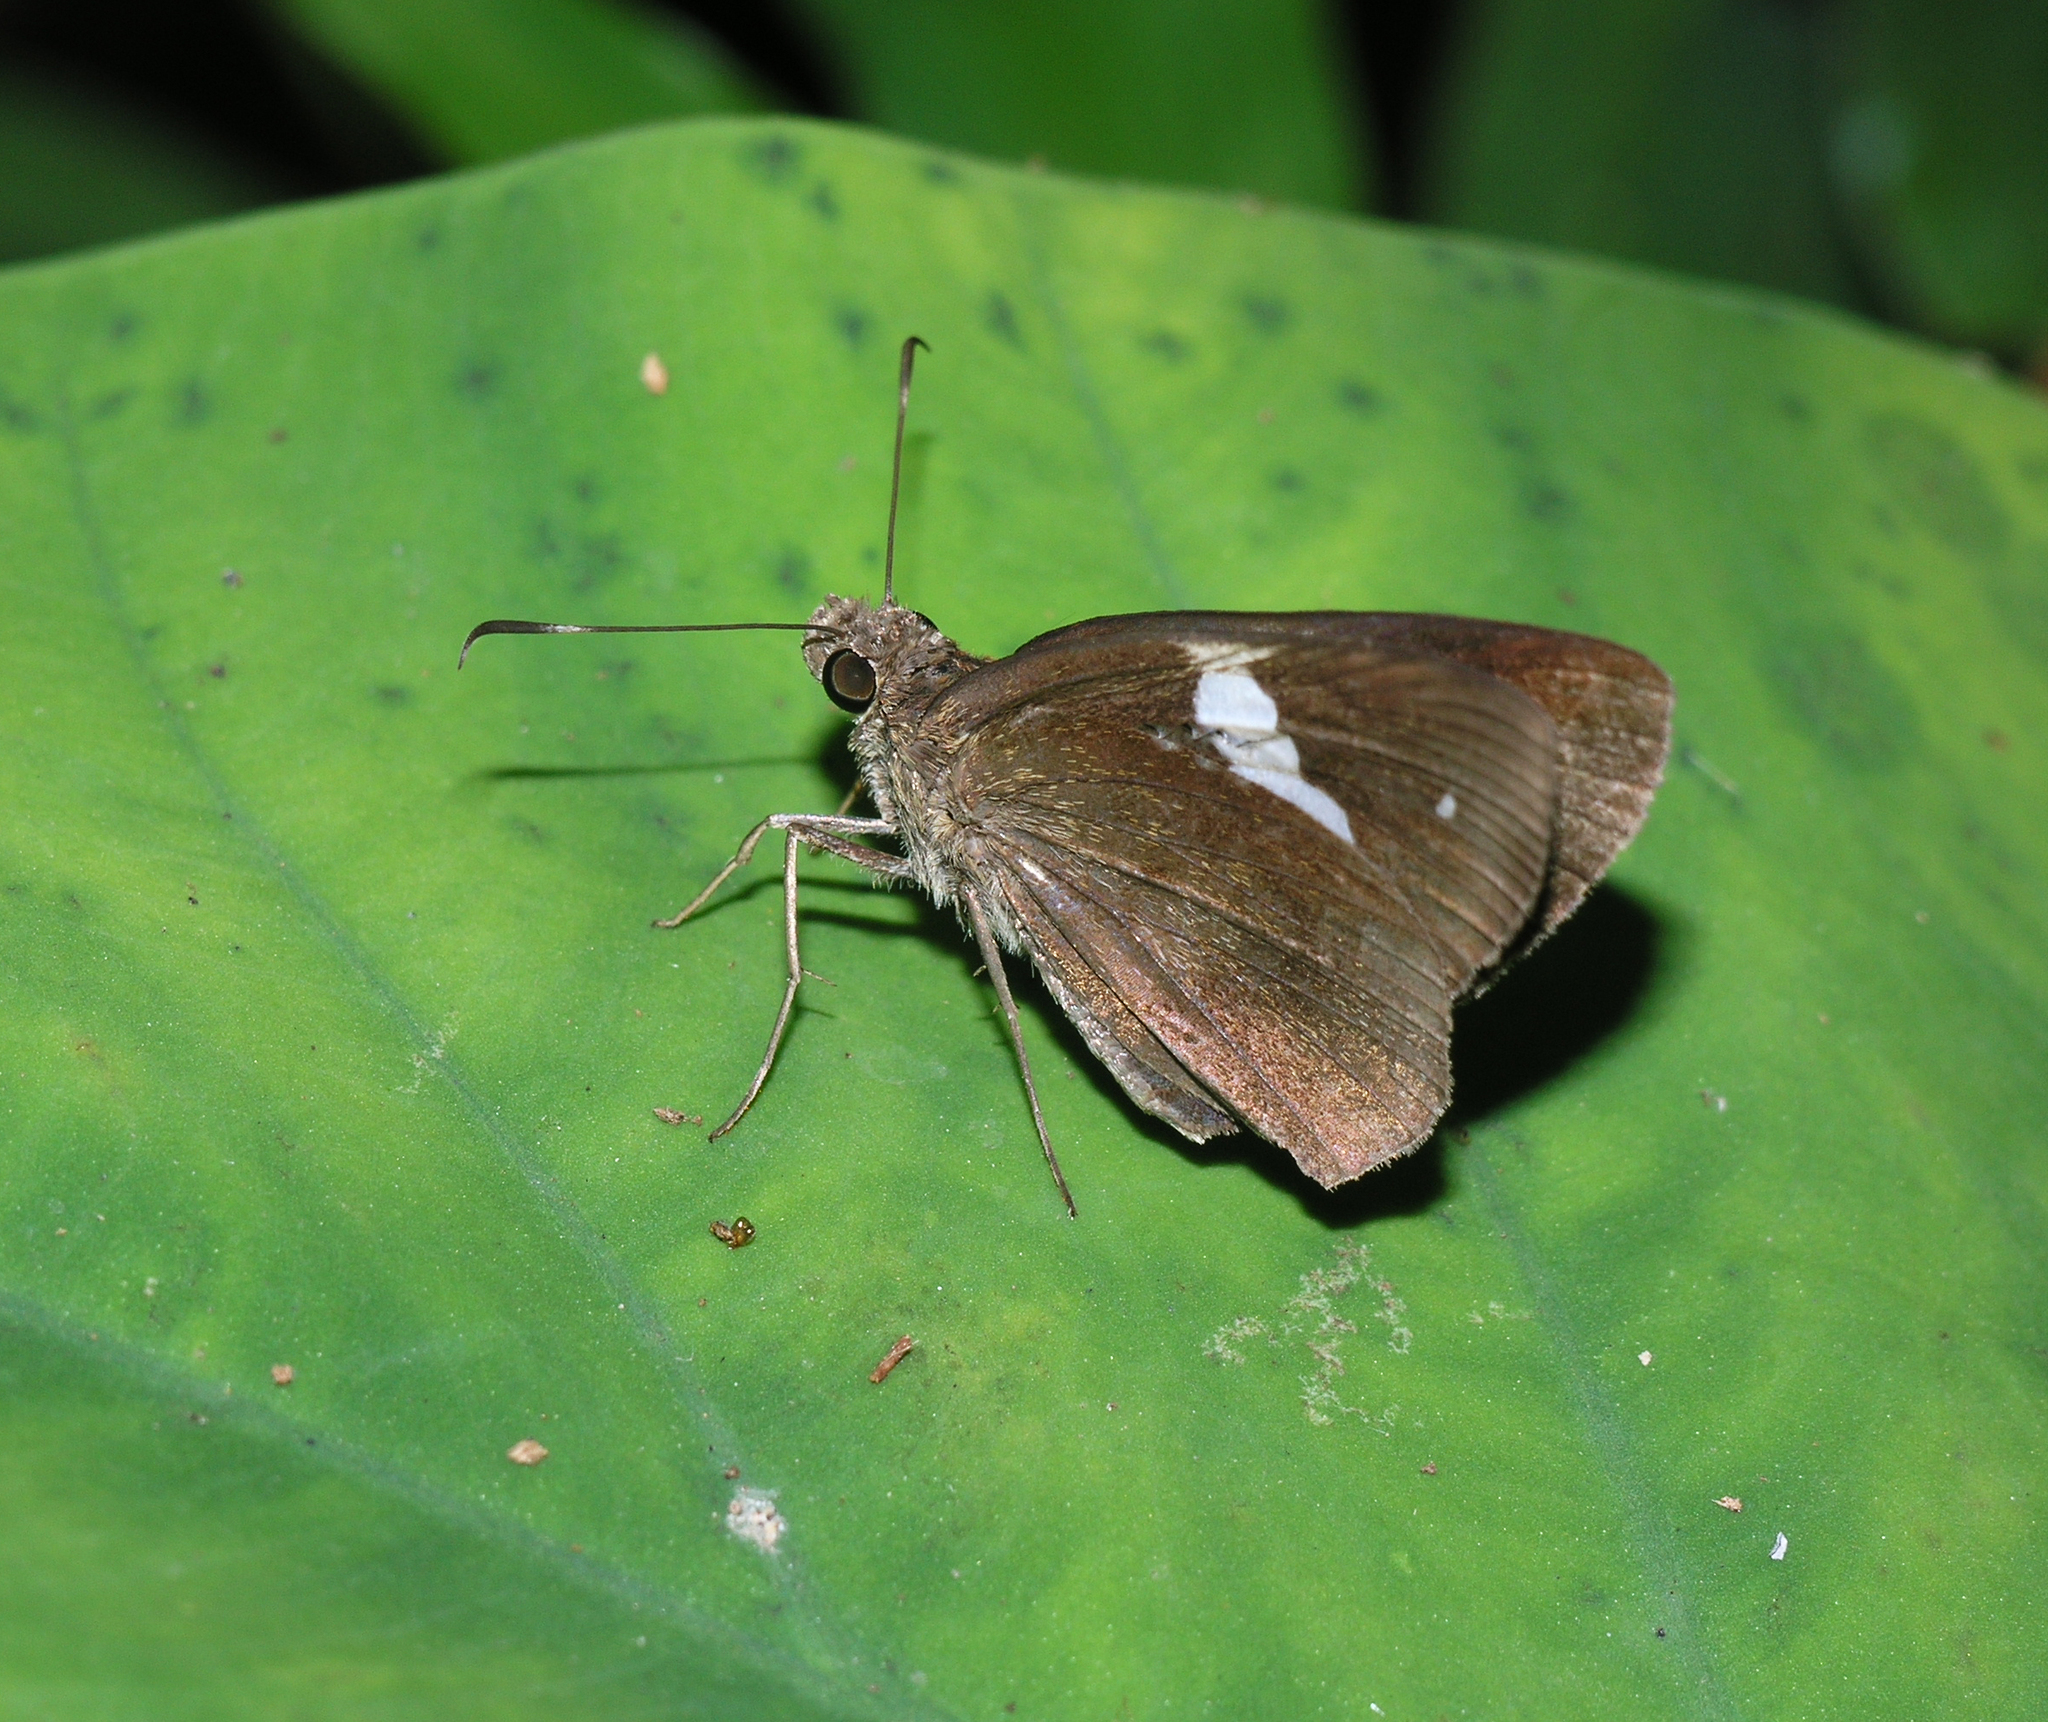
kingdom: Animalia
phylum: Arthropoda
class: Insecta
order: Lepidoptera
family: Hesperiidae
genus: Notocrypta
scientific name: Notocrypta paralysos
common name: Common banded demon
